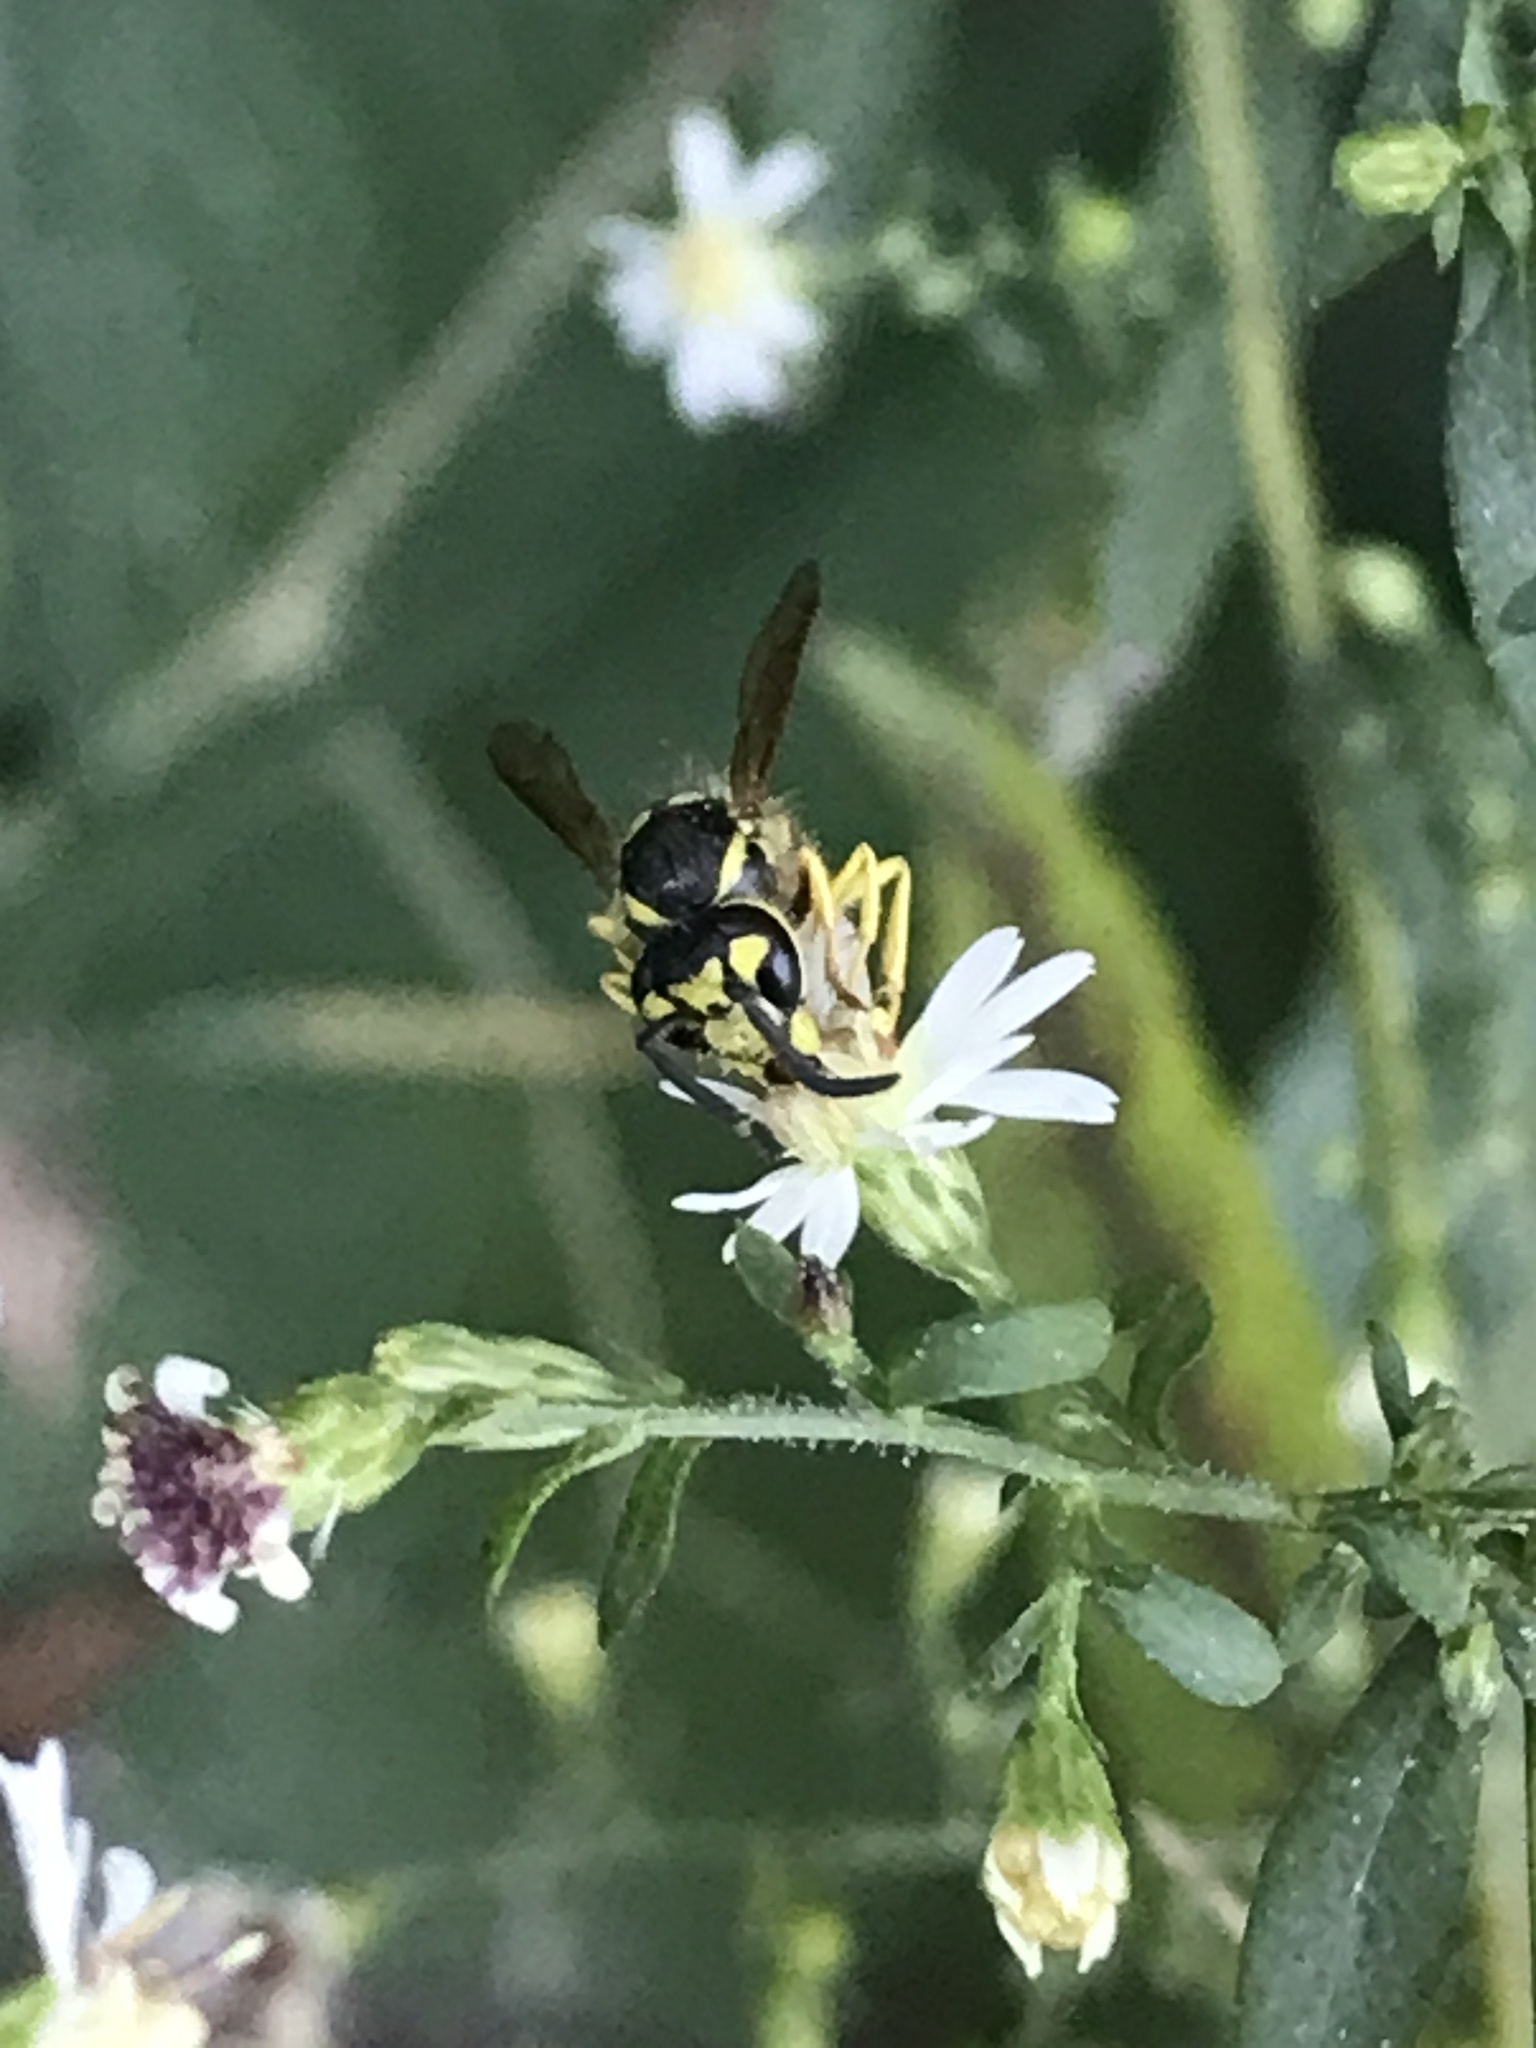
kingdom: Animalia
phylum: Arthropoda
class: Insecta
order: Hymenoptera
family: Vespidae
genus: Vespula
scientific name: Vespula
